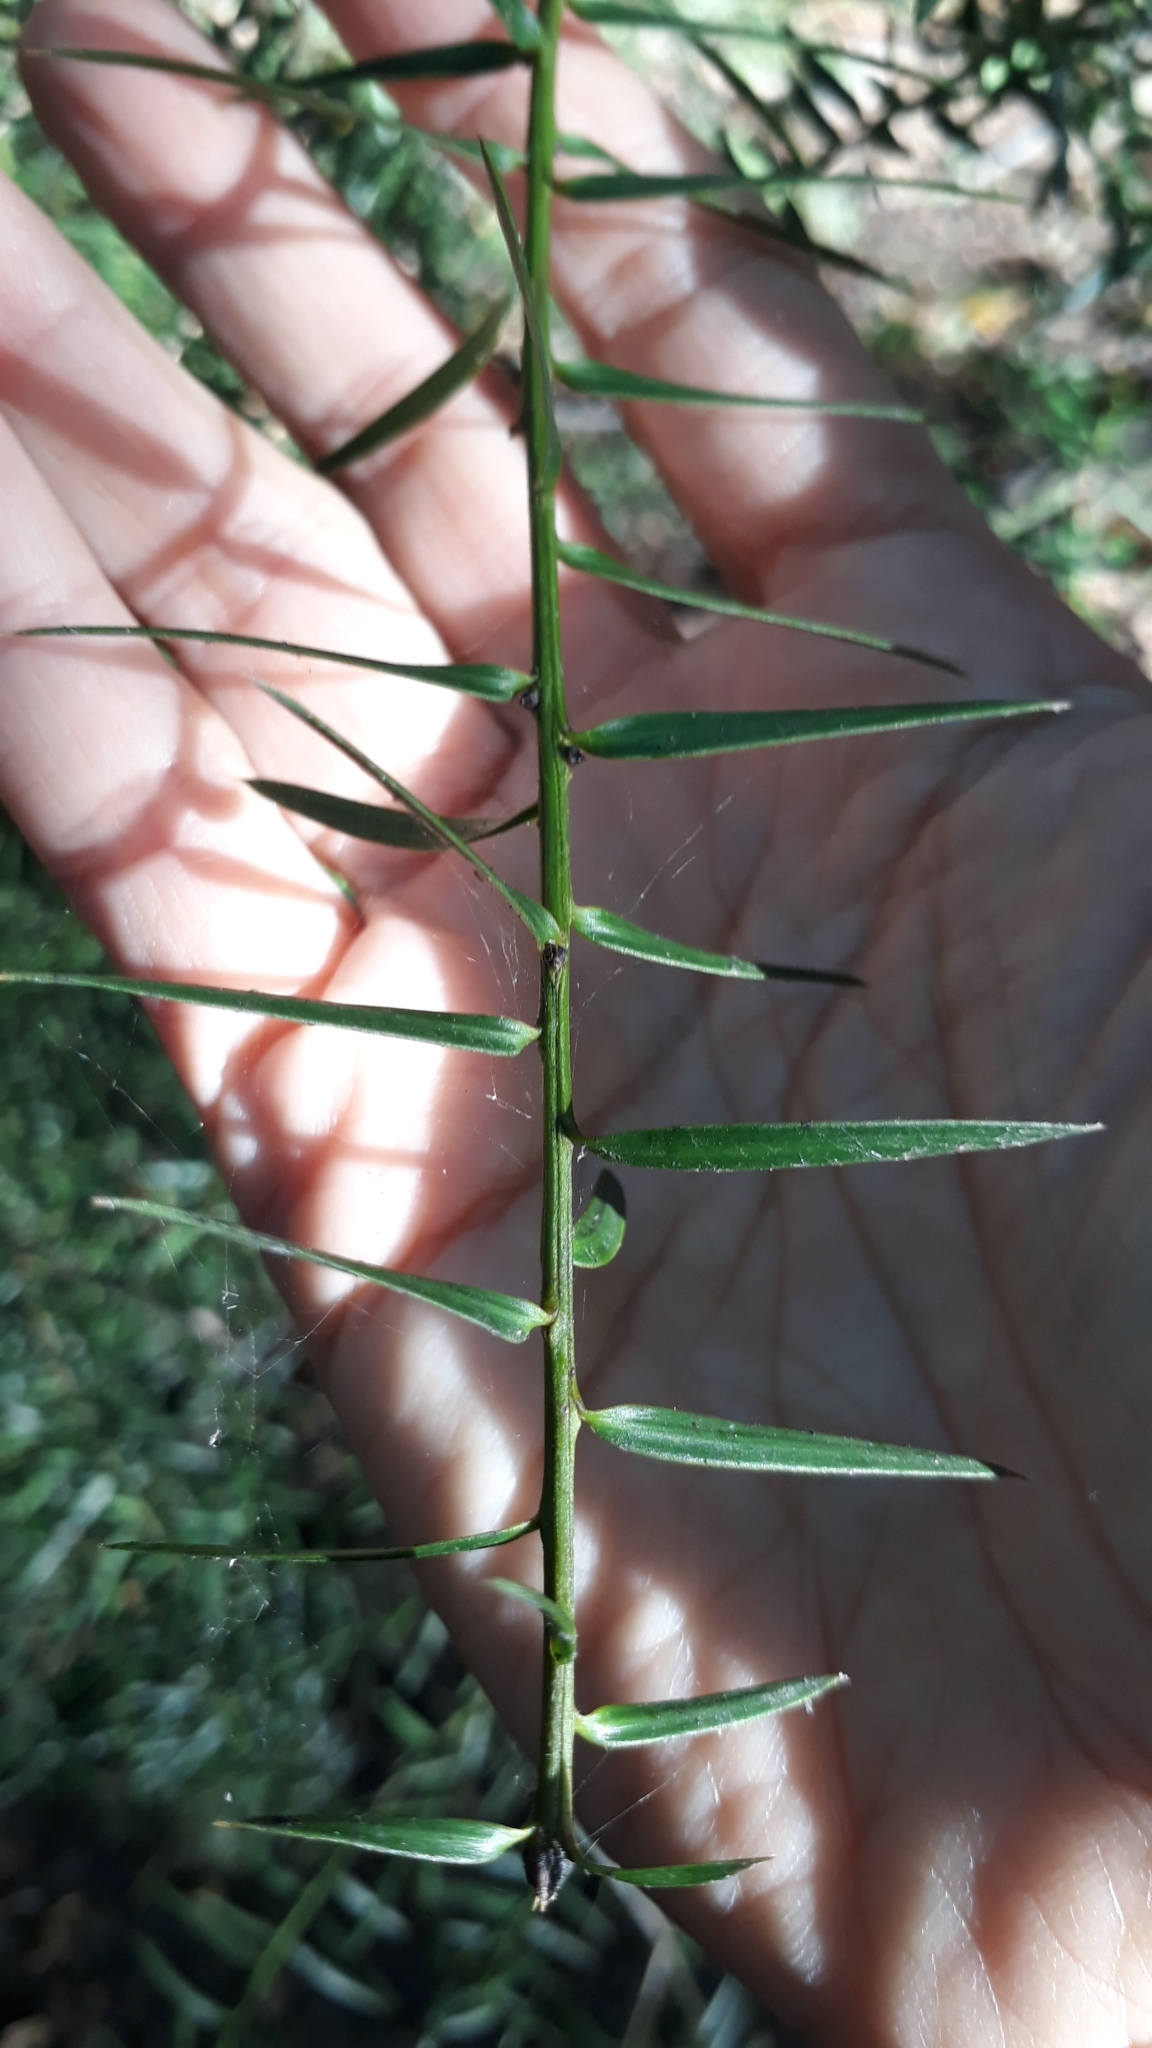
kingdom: Plantae
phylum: Tracheophyta
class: Pinopsida
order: Pinales
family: Podocarpaceae
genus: Podocarpus
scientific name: Podocarpus totara
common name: Totara
